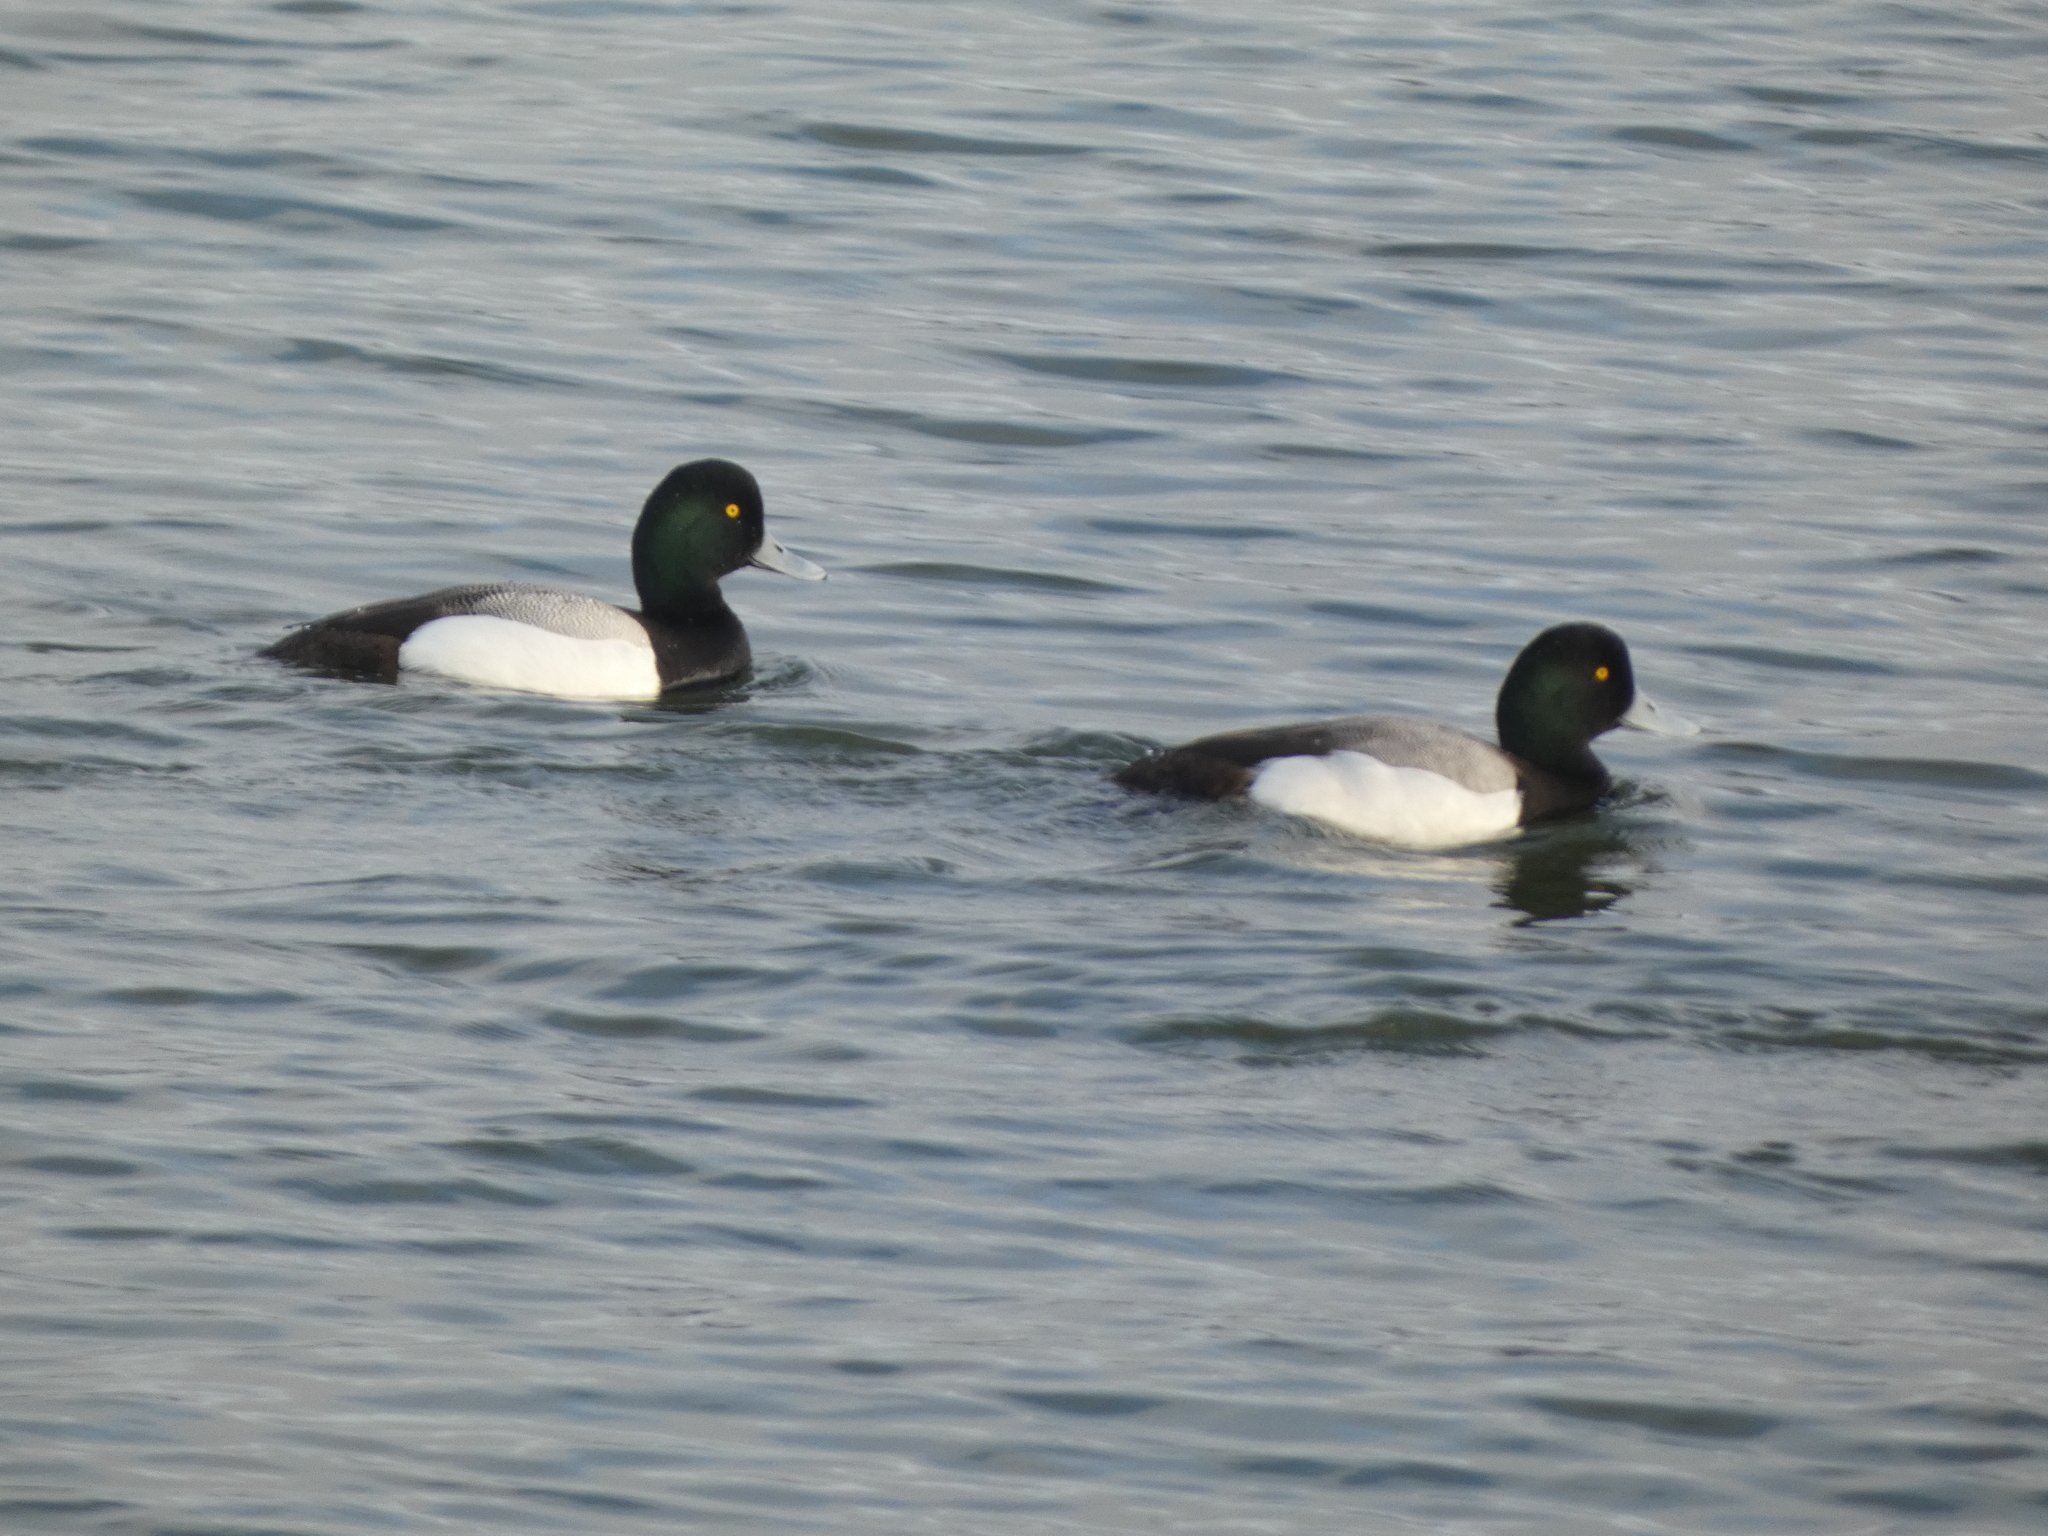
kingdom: Animalia
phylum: Chordata
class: Aves
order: Anseriformes
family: Anatidae
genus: Aythya
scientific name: Aythya affinis
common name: Lesser scaup
